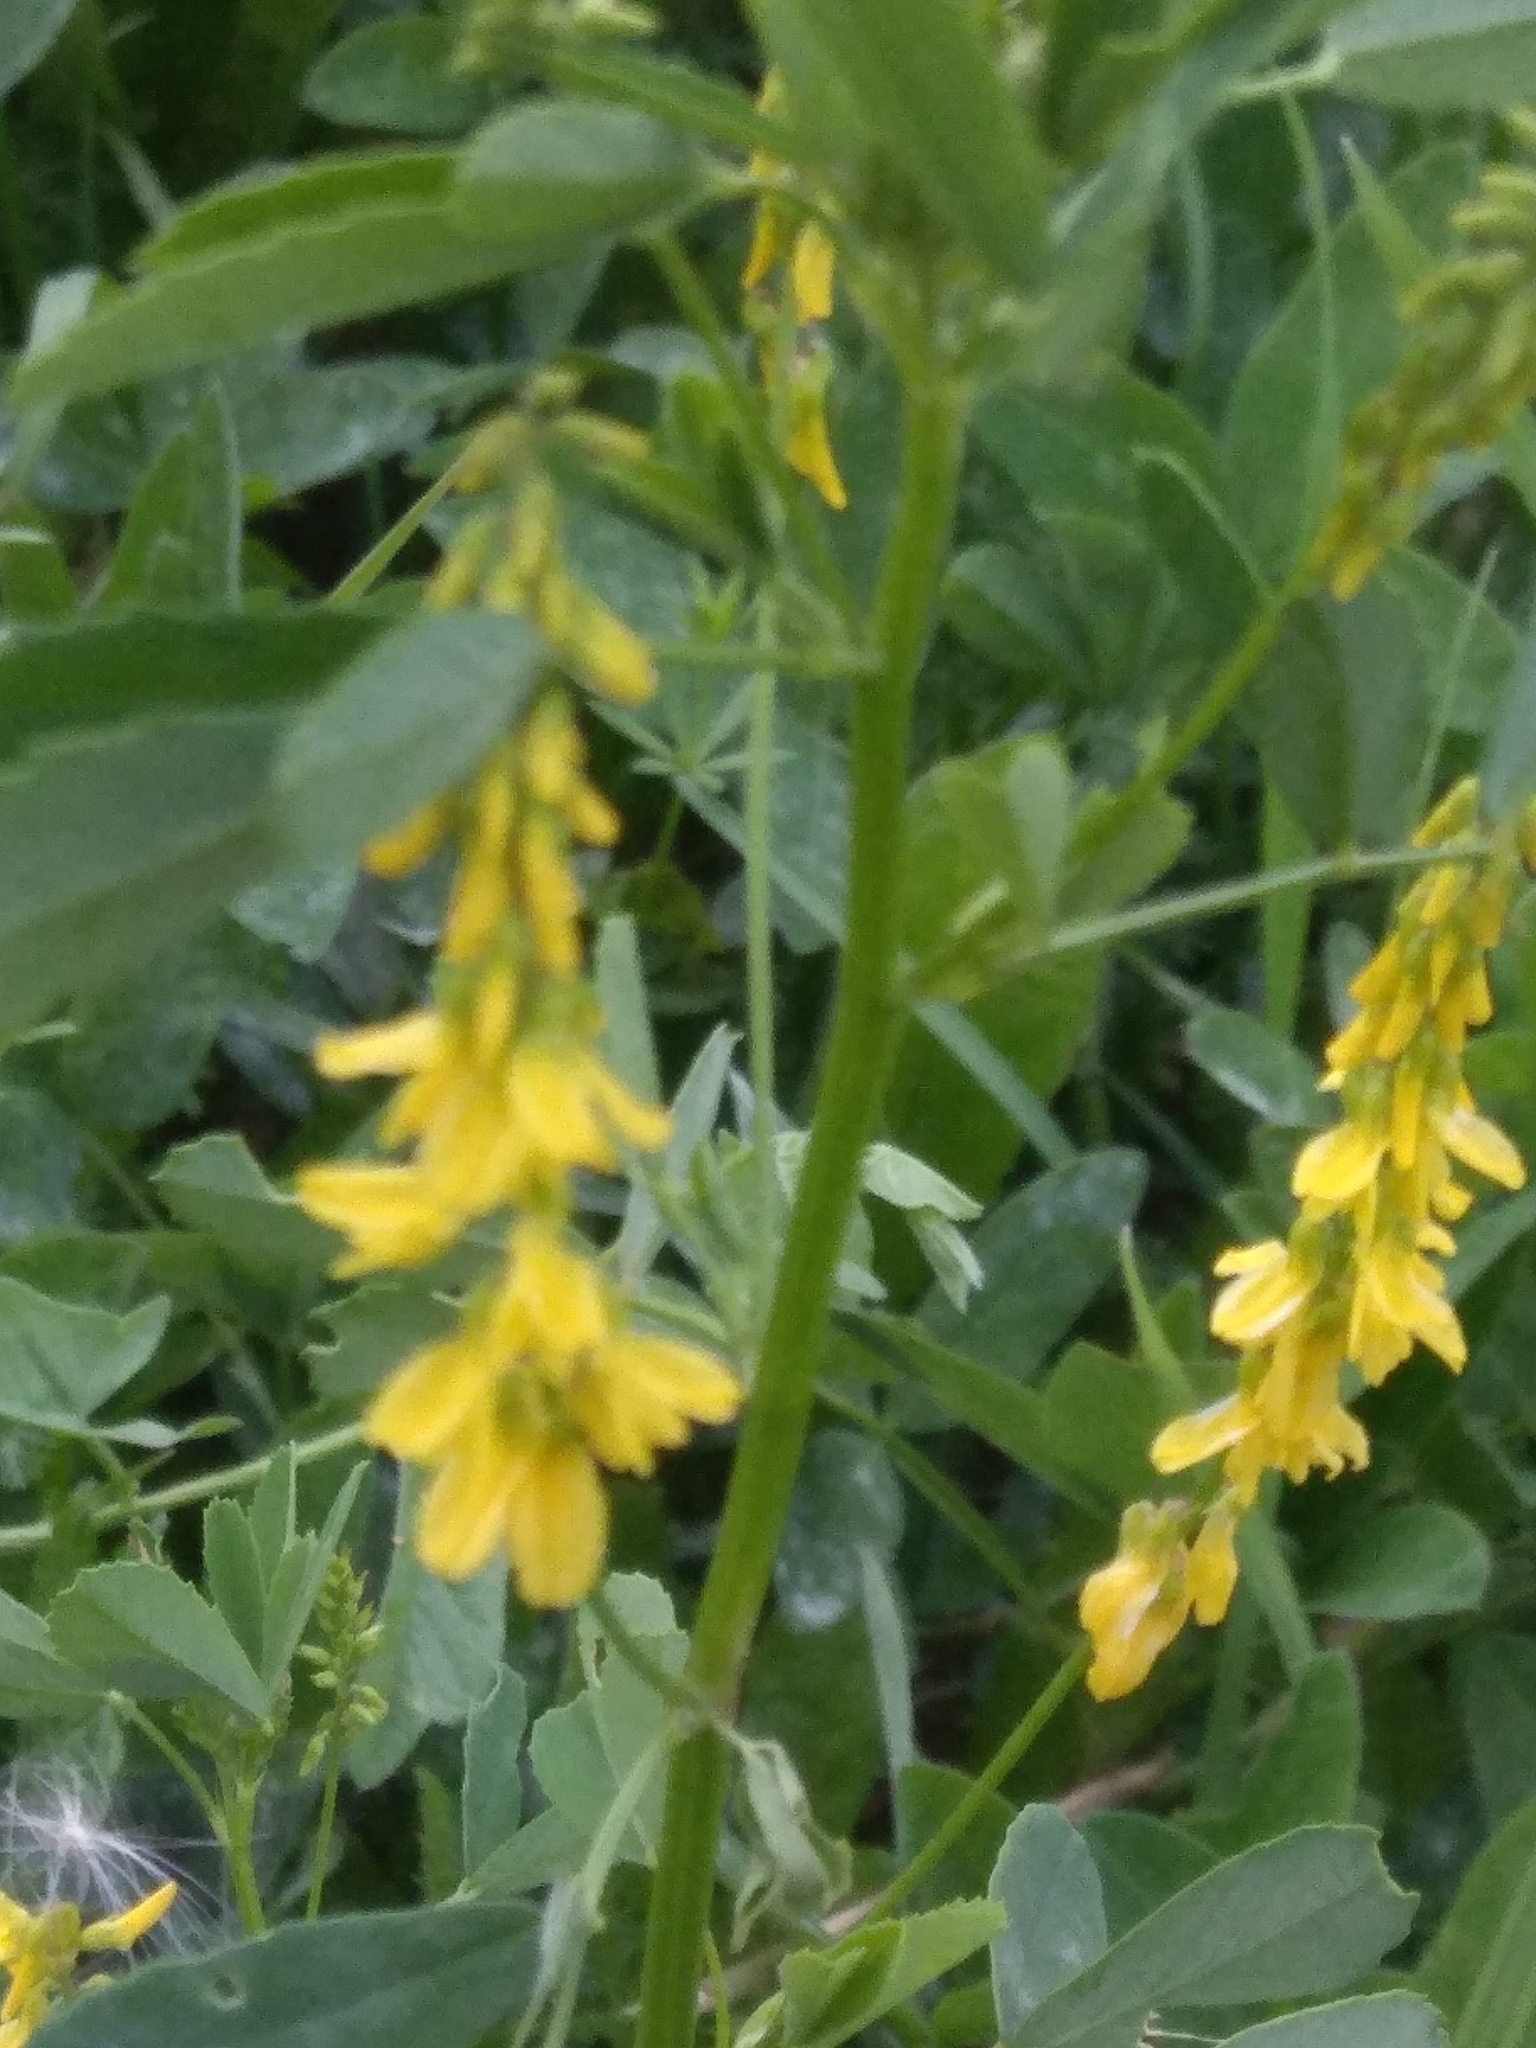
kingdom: Plantae
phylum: Tracheophyta
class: Magnoliopsida
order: Fabales
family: Fabaceae
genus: Melilotus
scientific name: Melilotus officinalis
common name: Sweetclover
